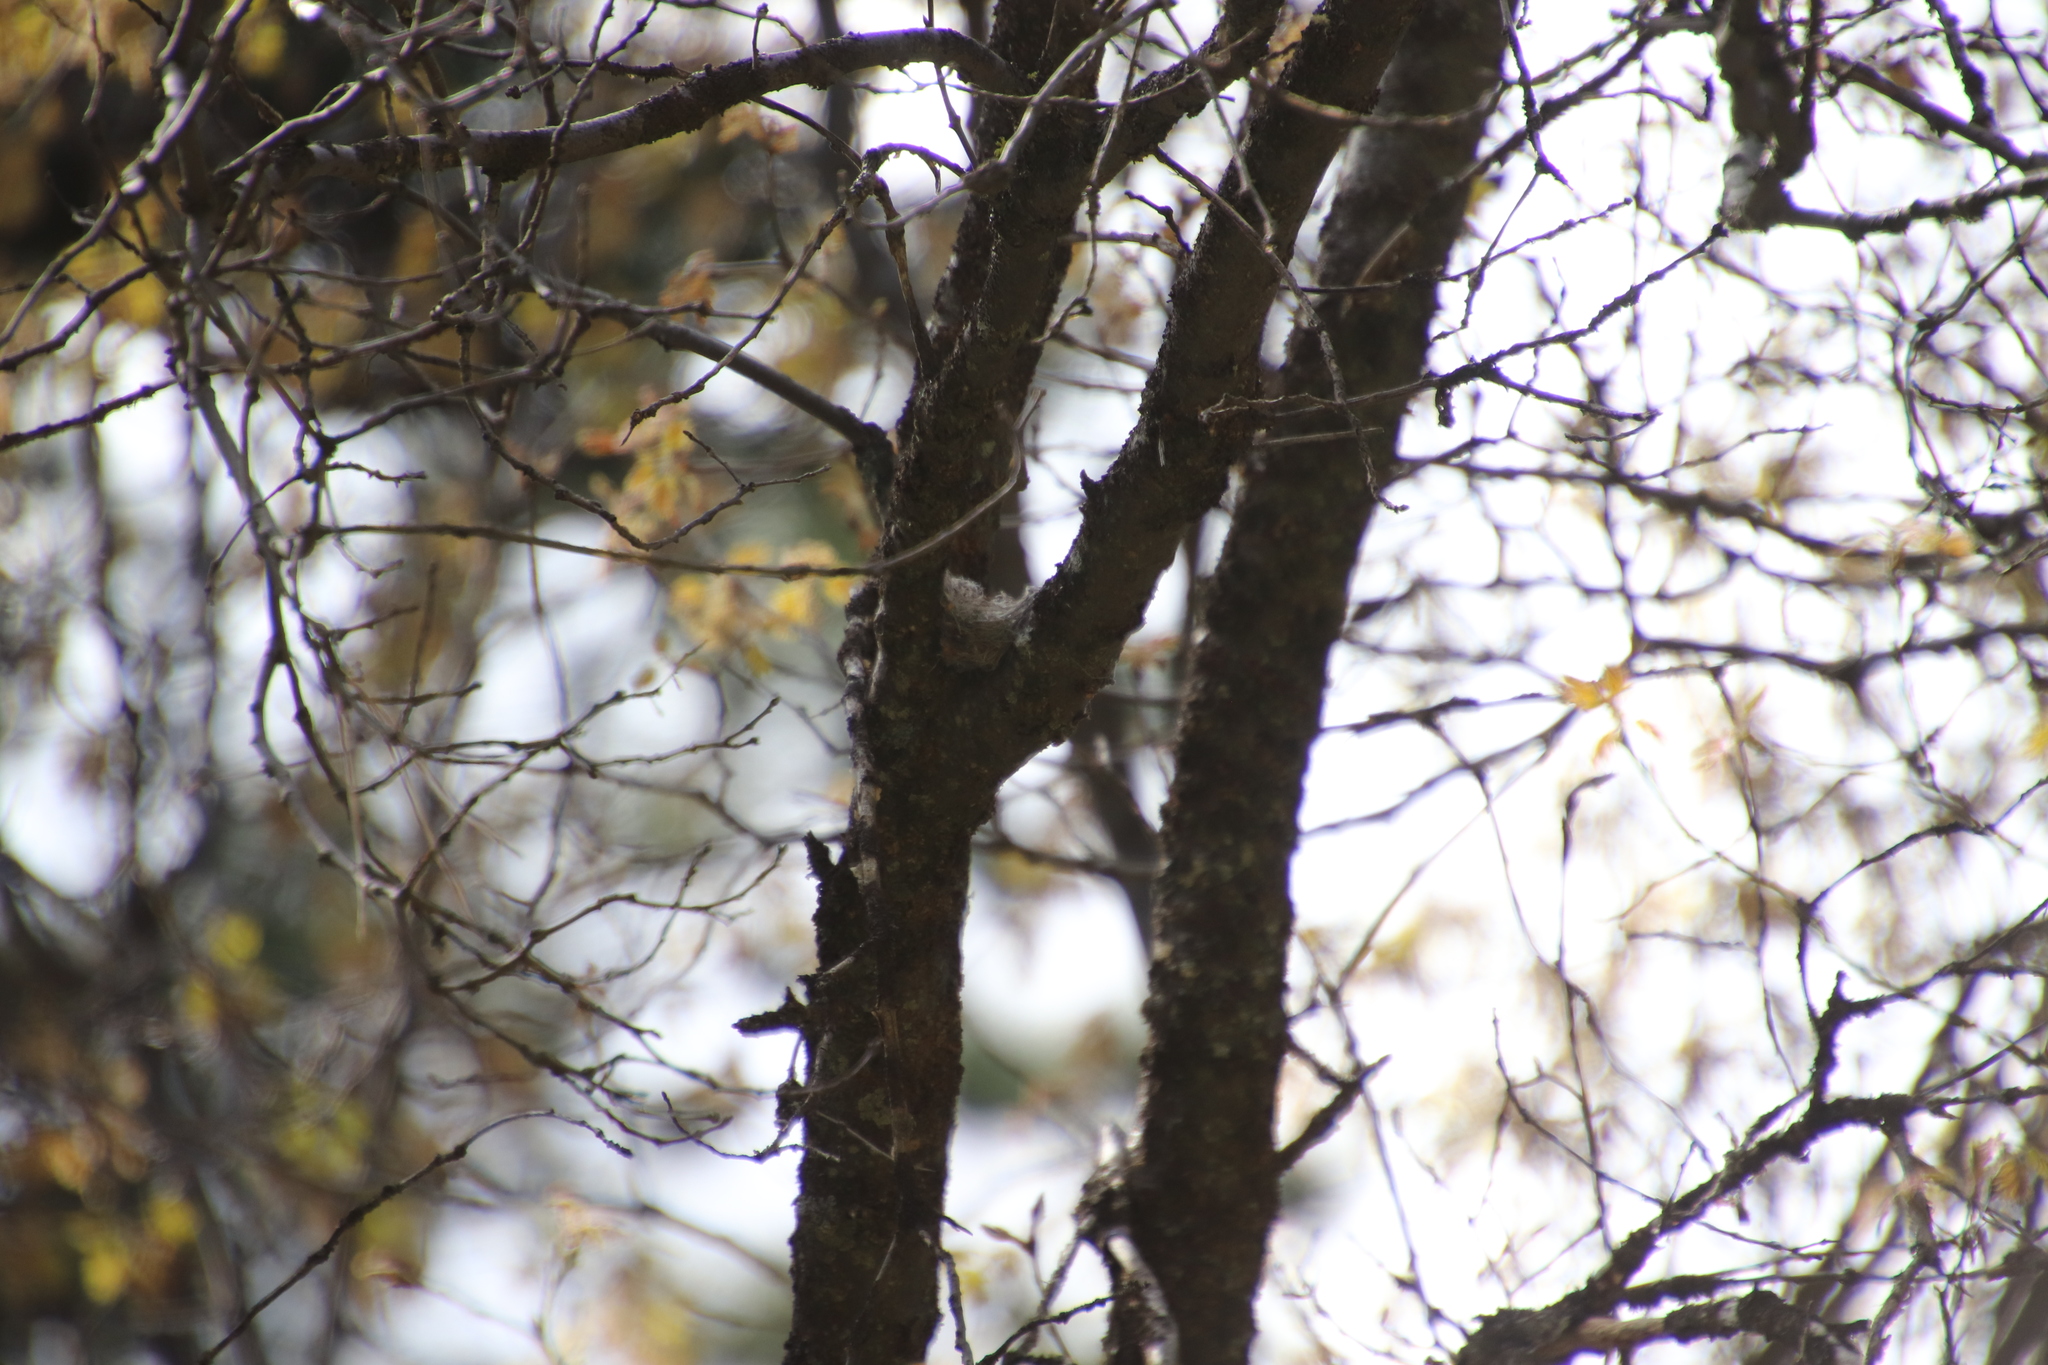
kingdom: Animalia
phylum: Chordata
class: Aves
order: Passeriformes
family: Tyrannidae
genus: Contopus
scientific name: Contopus sordidulus
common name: Western wood-pewee
